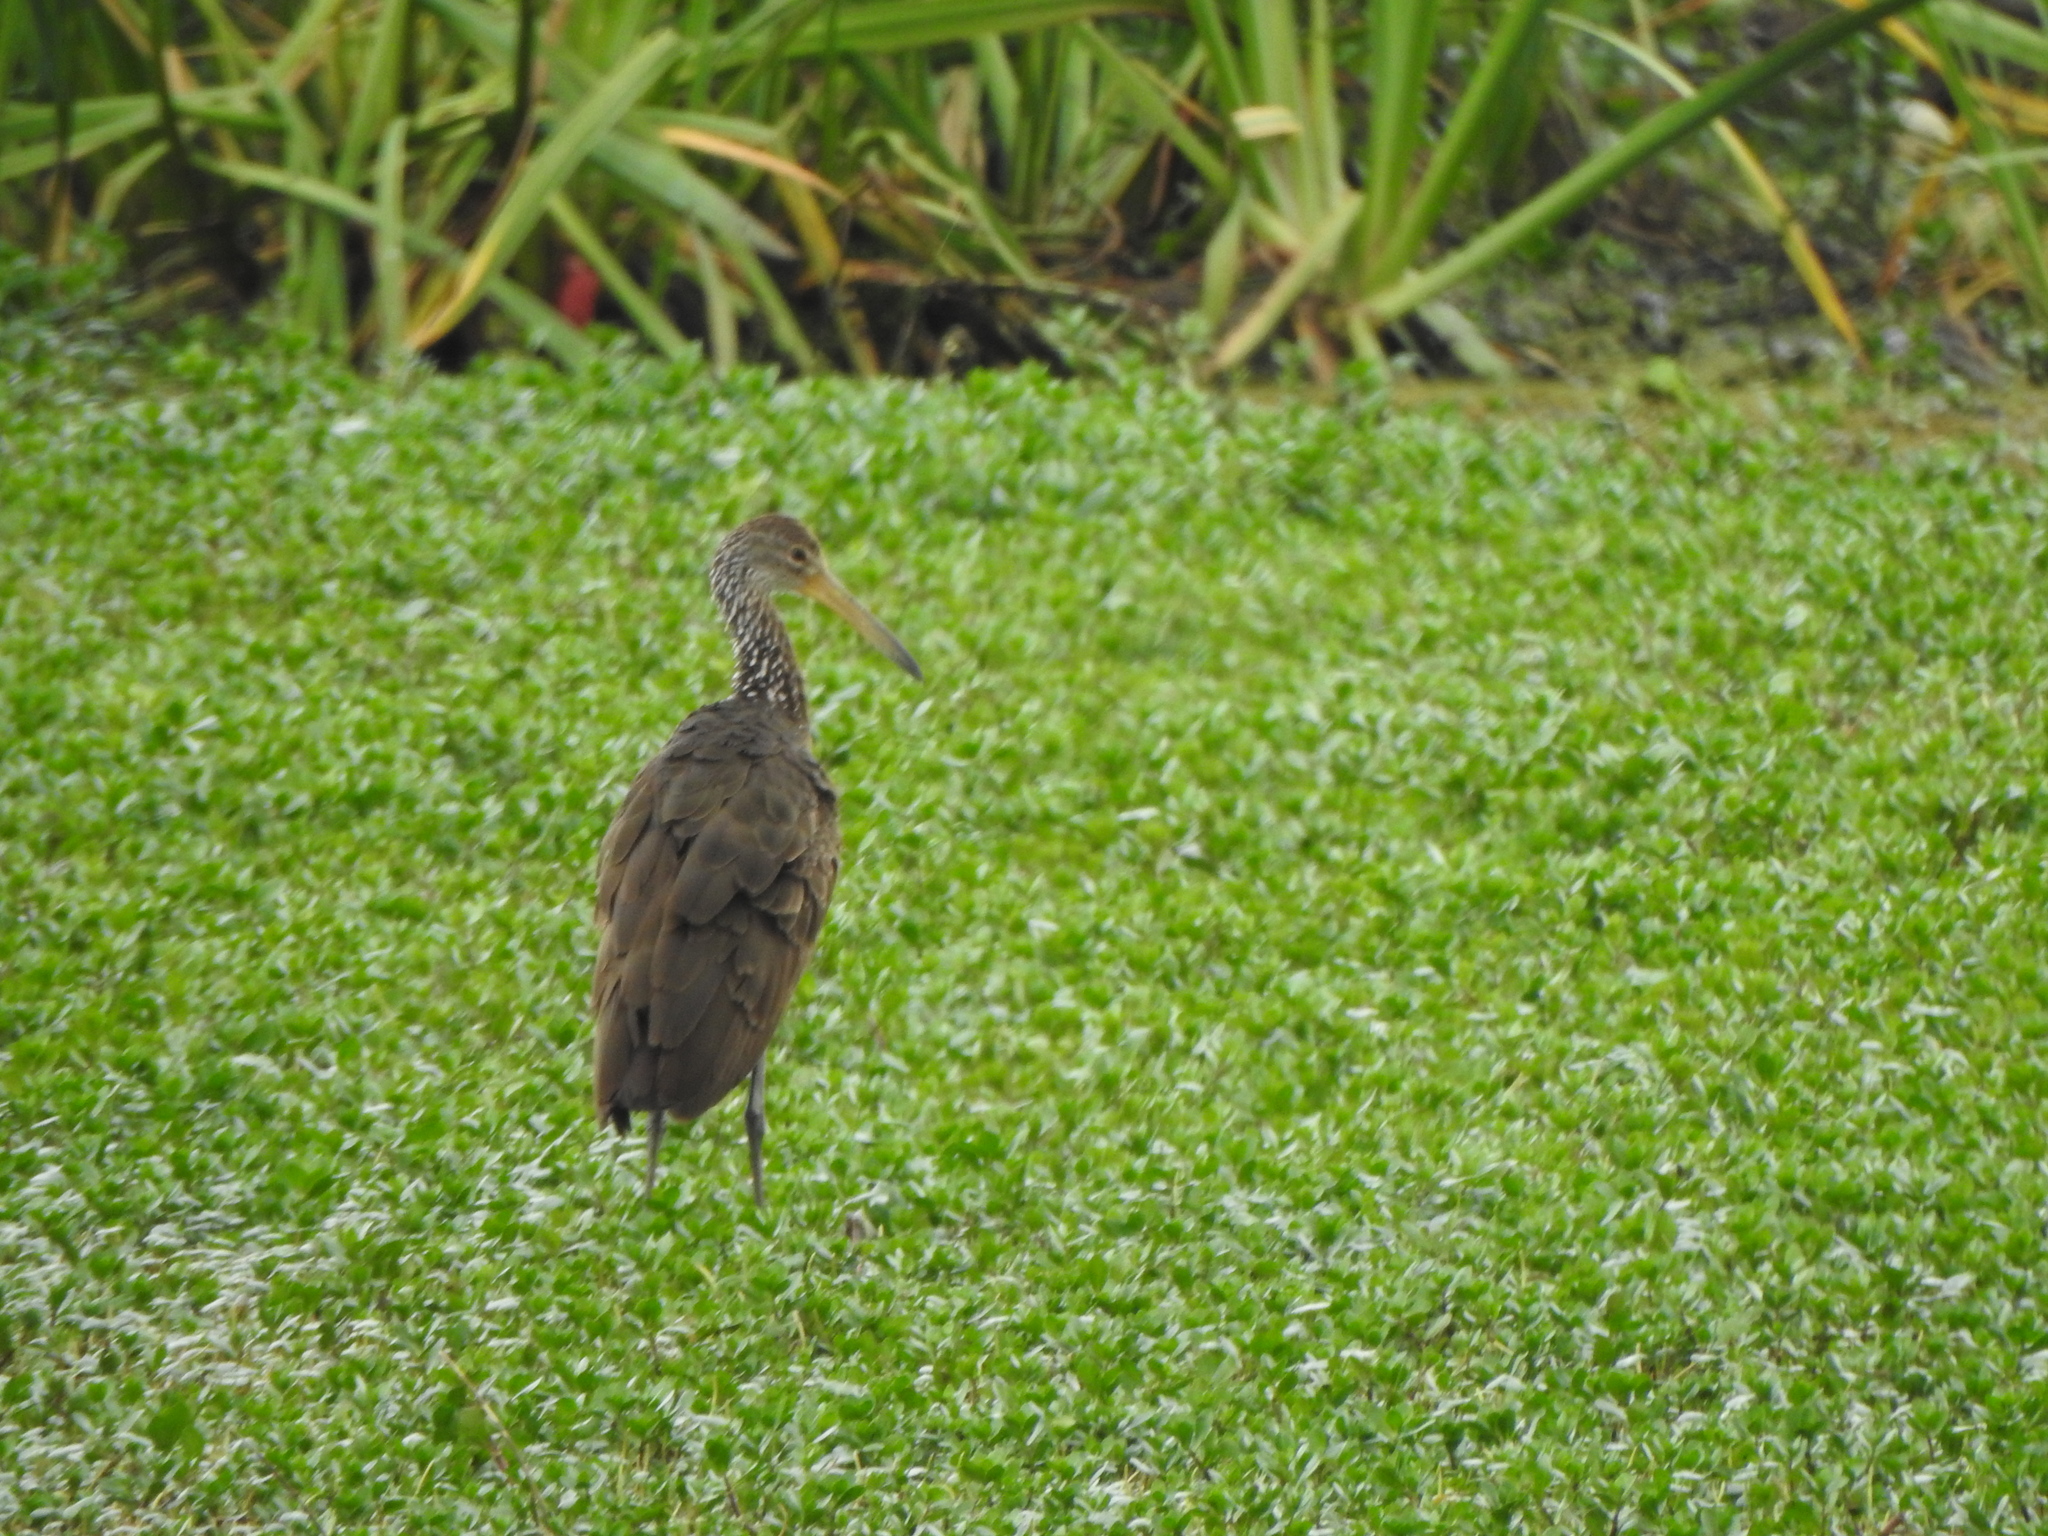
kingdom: Animalia
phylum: Chordata
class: Aves
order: Gruiformes
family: Aramidae
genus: Aramus
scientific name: Aramus guarauna
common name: Limpkin
